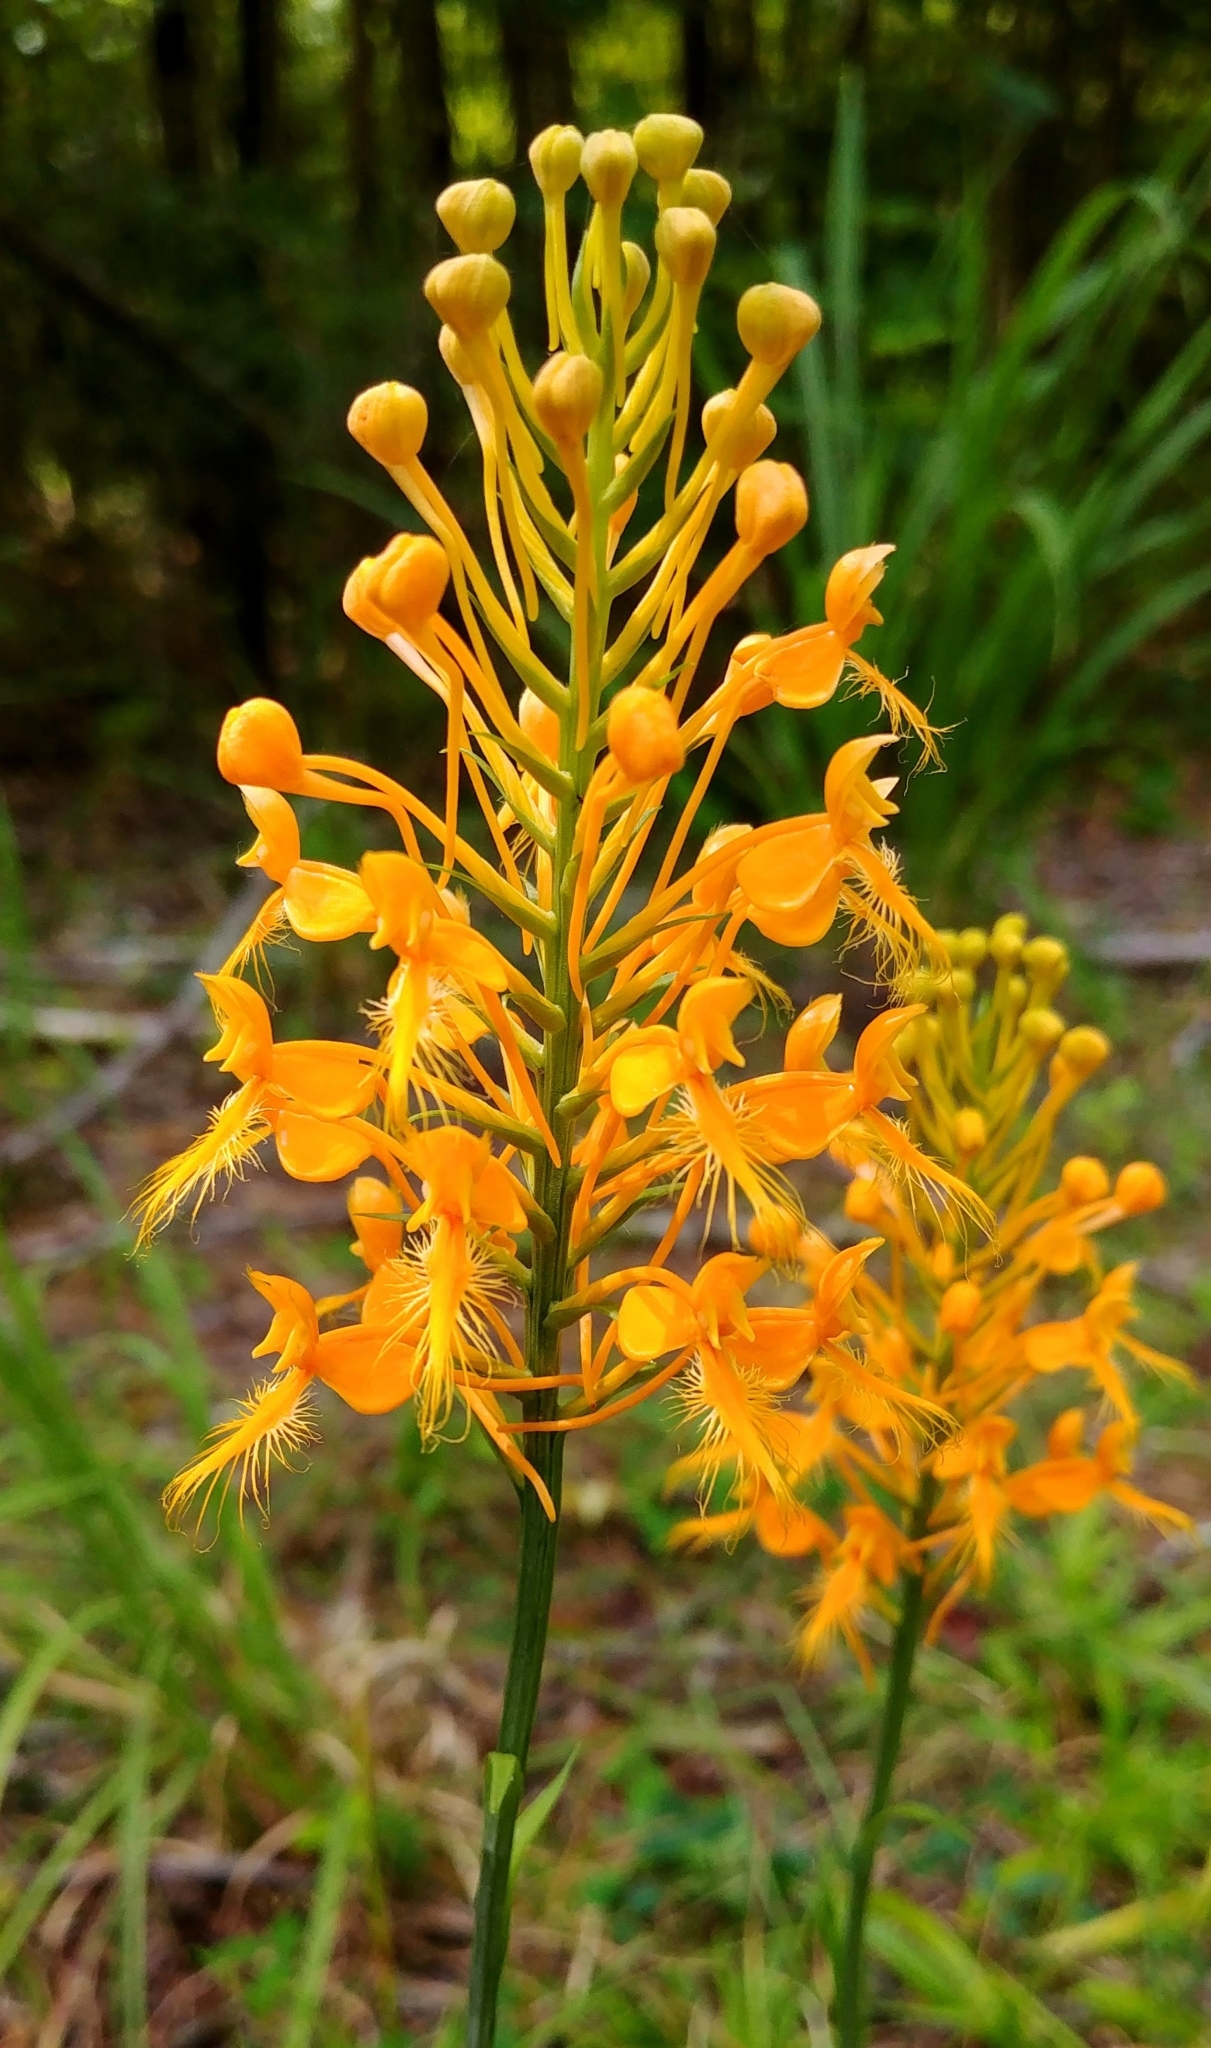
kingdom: Plantae
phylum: Tracheophyta
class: Liliopsida
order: Asparagales
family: Orchidaceae
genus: Platanthera
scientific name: Platanthera ciliaris
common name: Yellow fringed orchid
